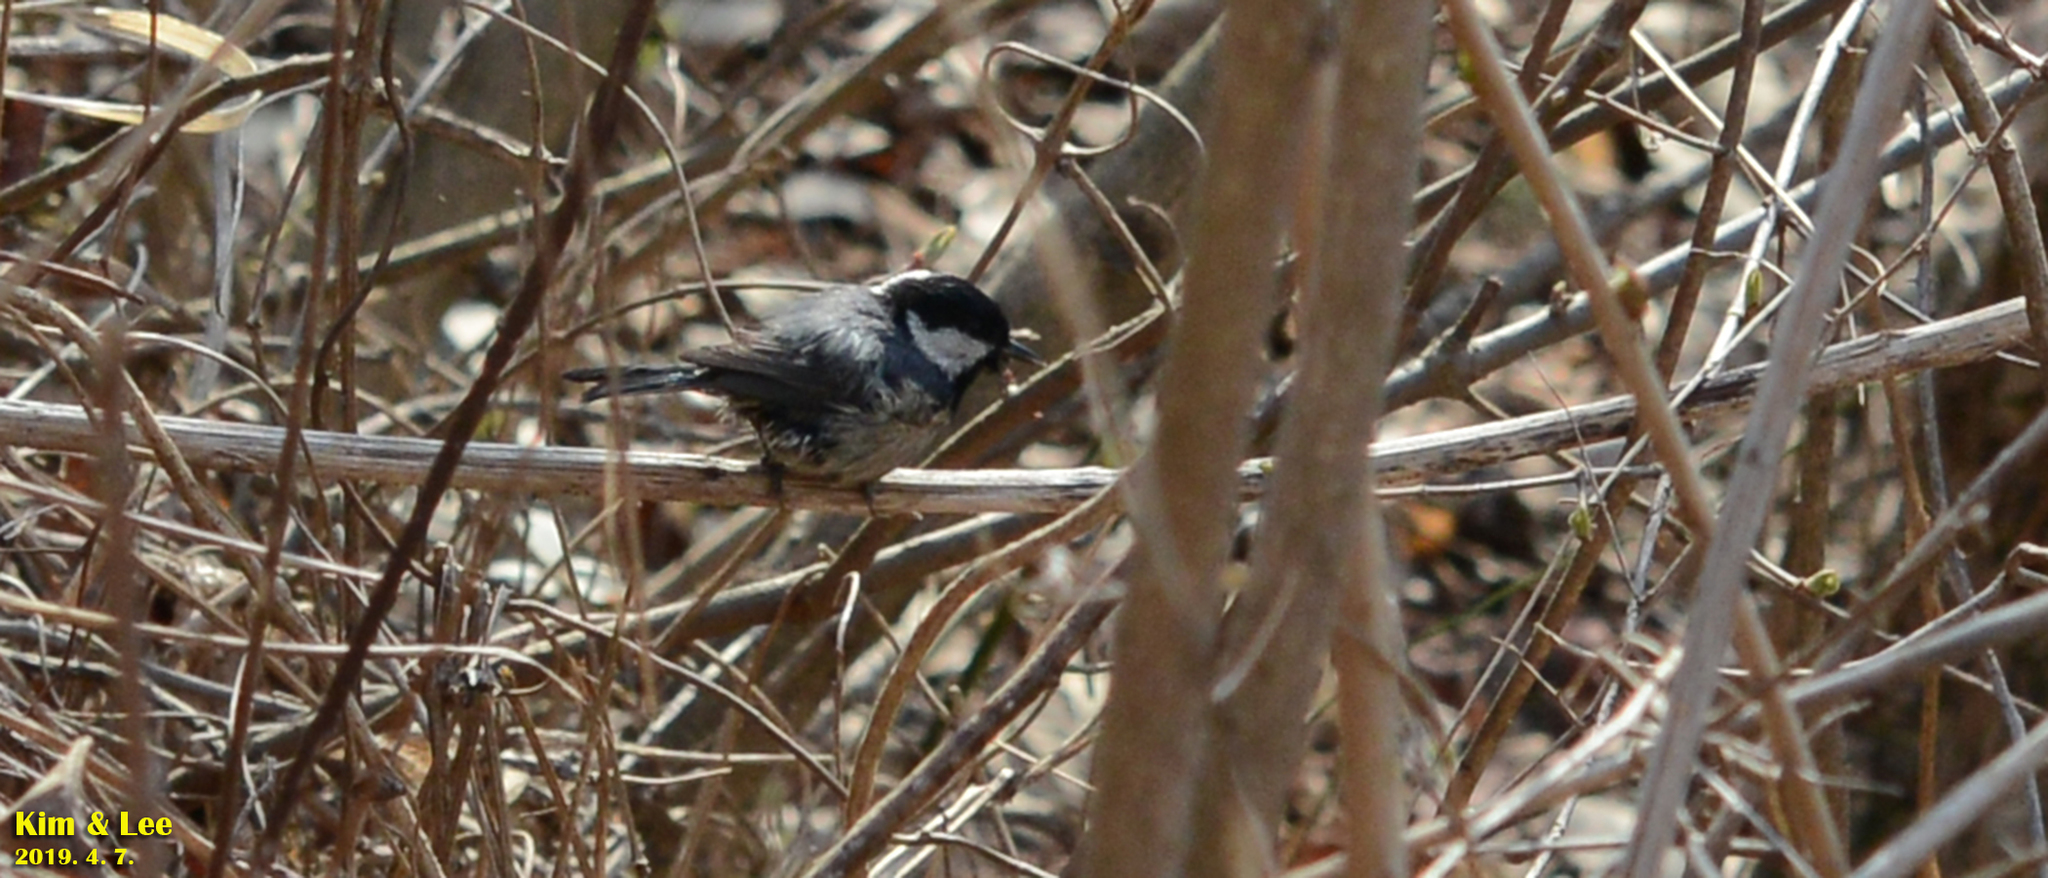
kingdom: Animalia
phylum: Chordata
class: Aves
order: Passeriformes
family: Paridae
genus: Periparus
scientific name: Periparus ater
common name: Coal tit
